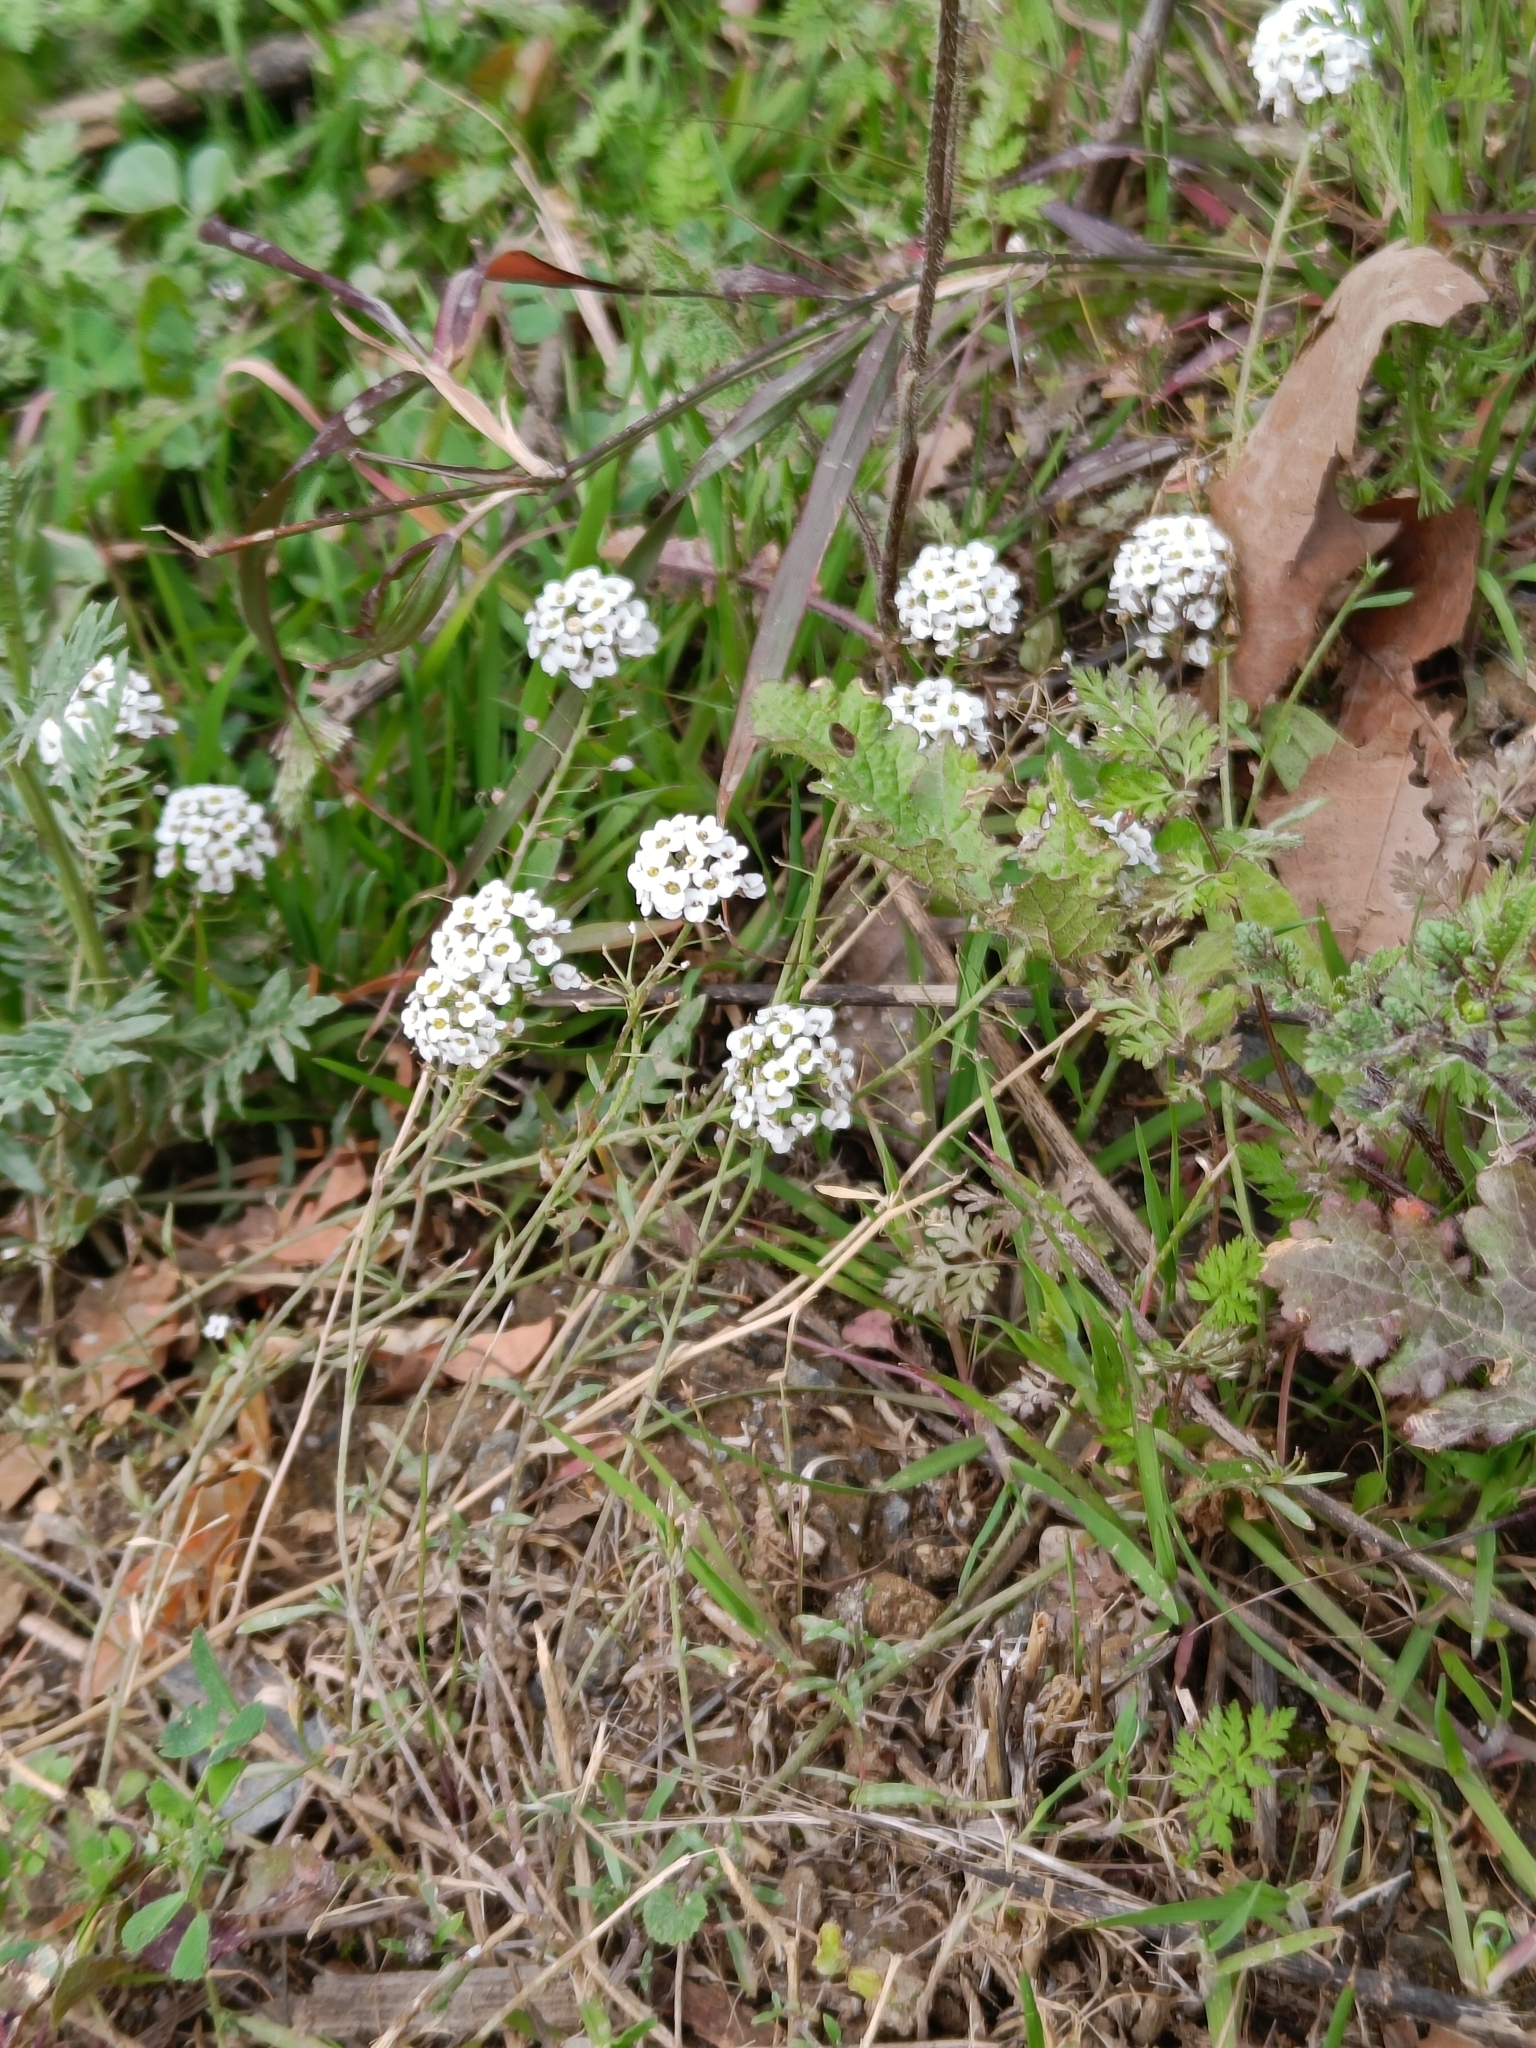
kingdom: Plantae
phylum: Tracheophyta
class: Magnoliopsida
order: Brassicales
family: Brassicaceae
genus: Lobularia
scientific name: Lobularia maritima
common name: Sweet alison
